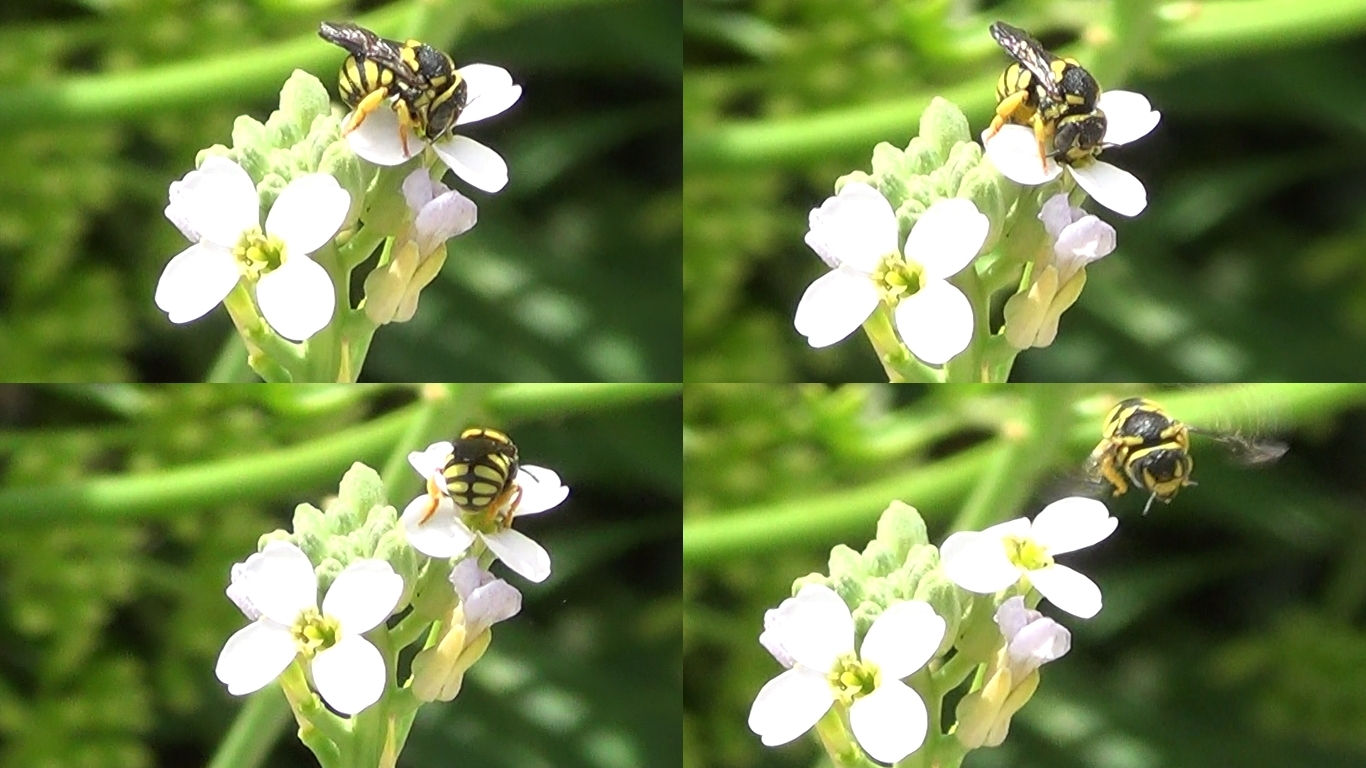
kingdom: Animalia
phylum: Arthropoda
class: Insecta
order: Hymenoptera
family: Megachilidae
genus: Anthidiellum
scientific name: Anthidiellum strigatum
